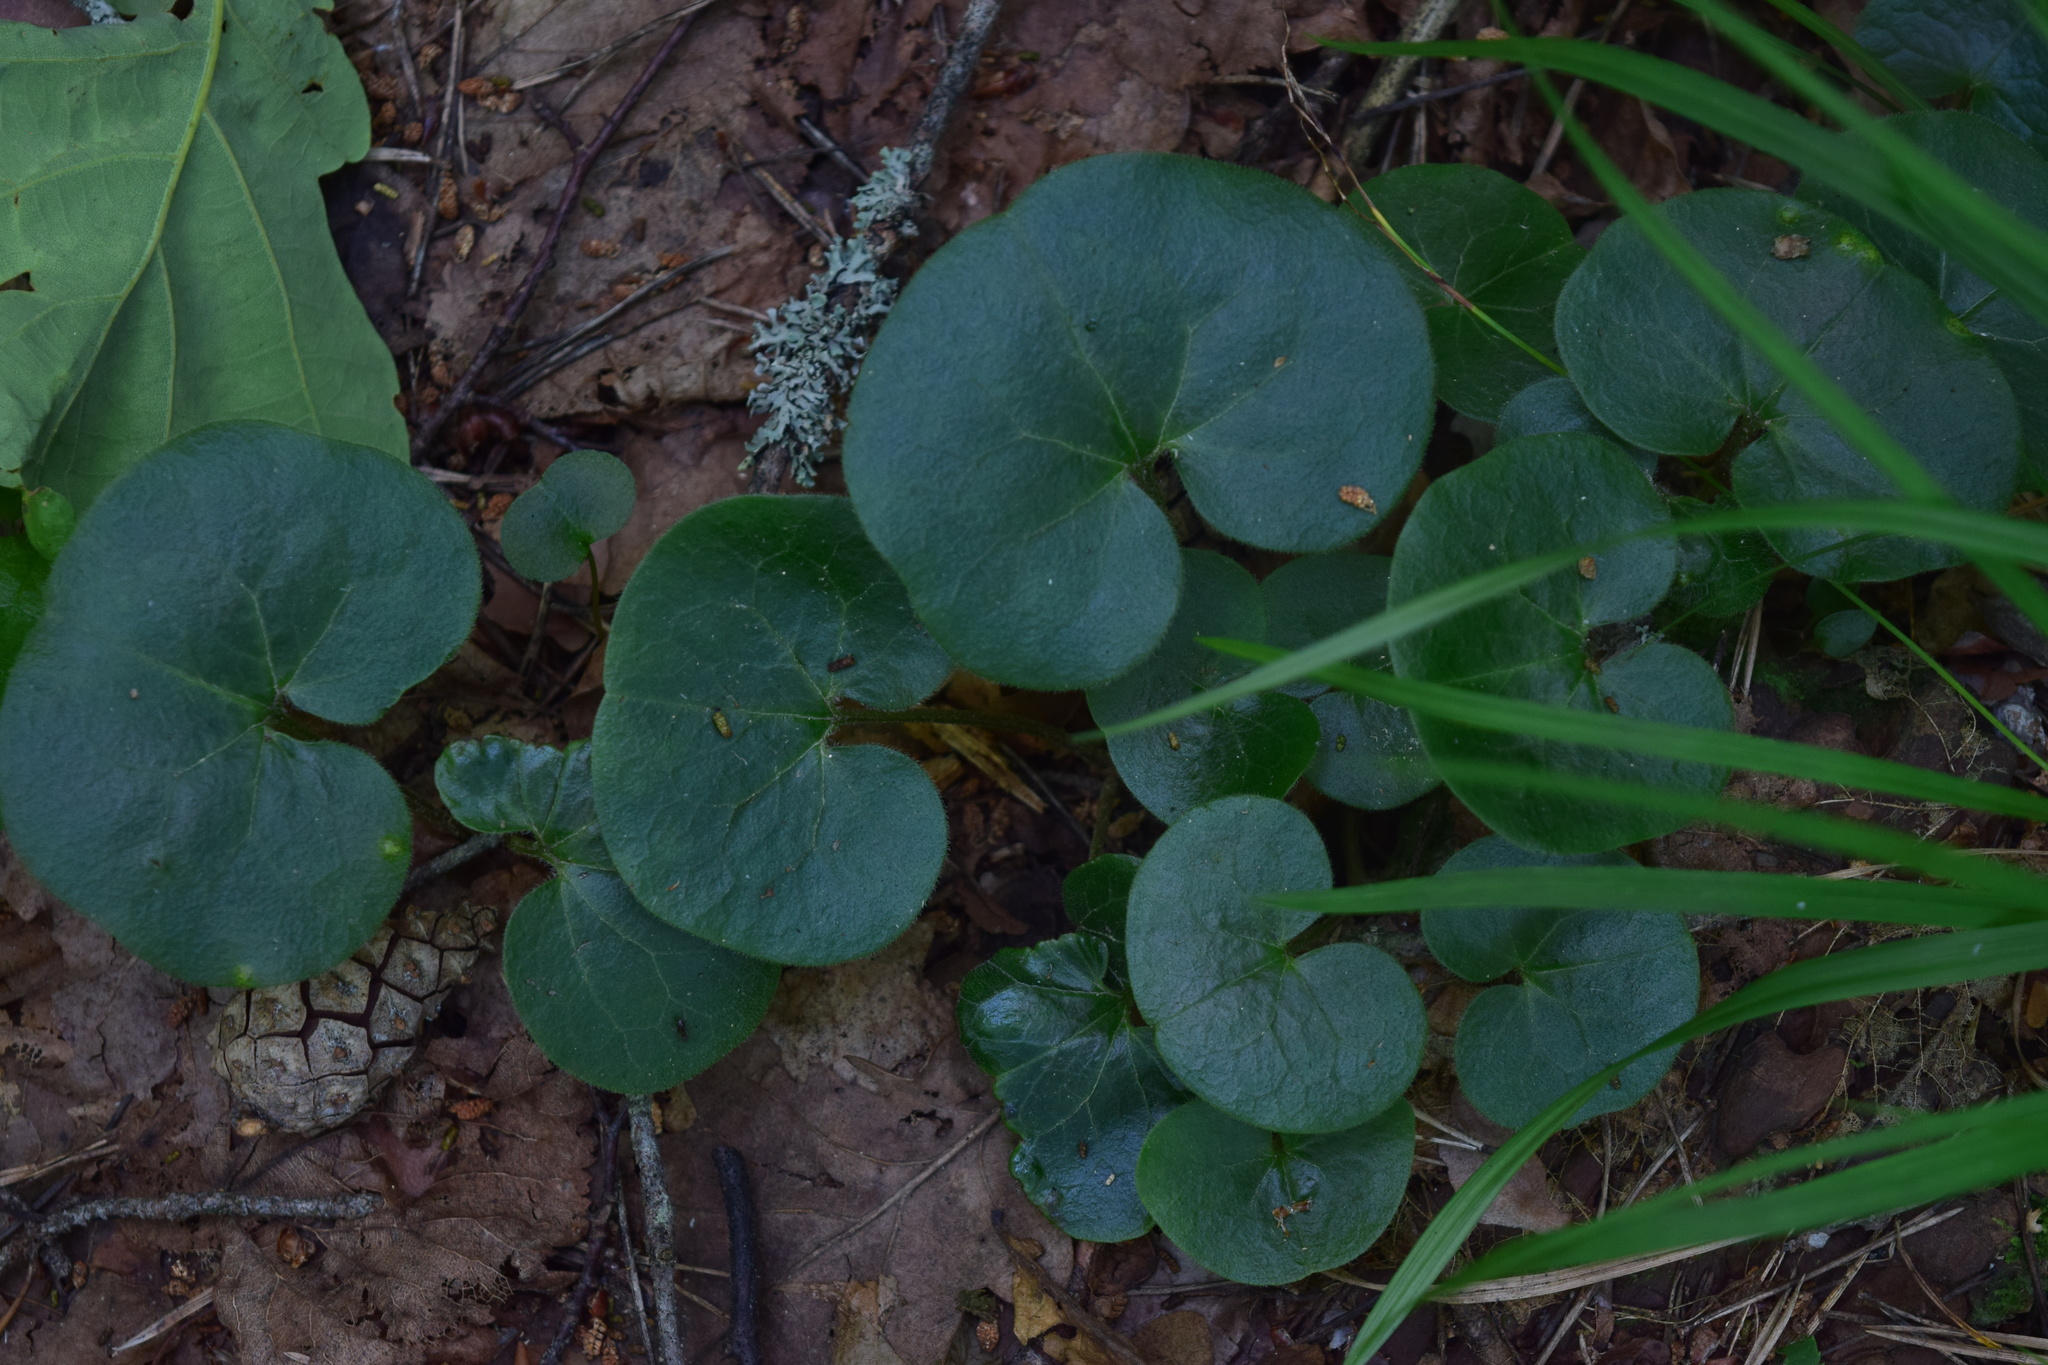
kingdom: Plantae
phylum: Tracheophyta
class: Magnoliopsida
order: Piperales
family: Aristolochiaceae
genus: Asarum
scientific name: Asarum europaeum
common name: Asarabacca
